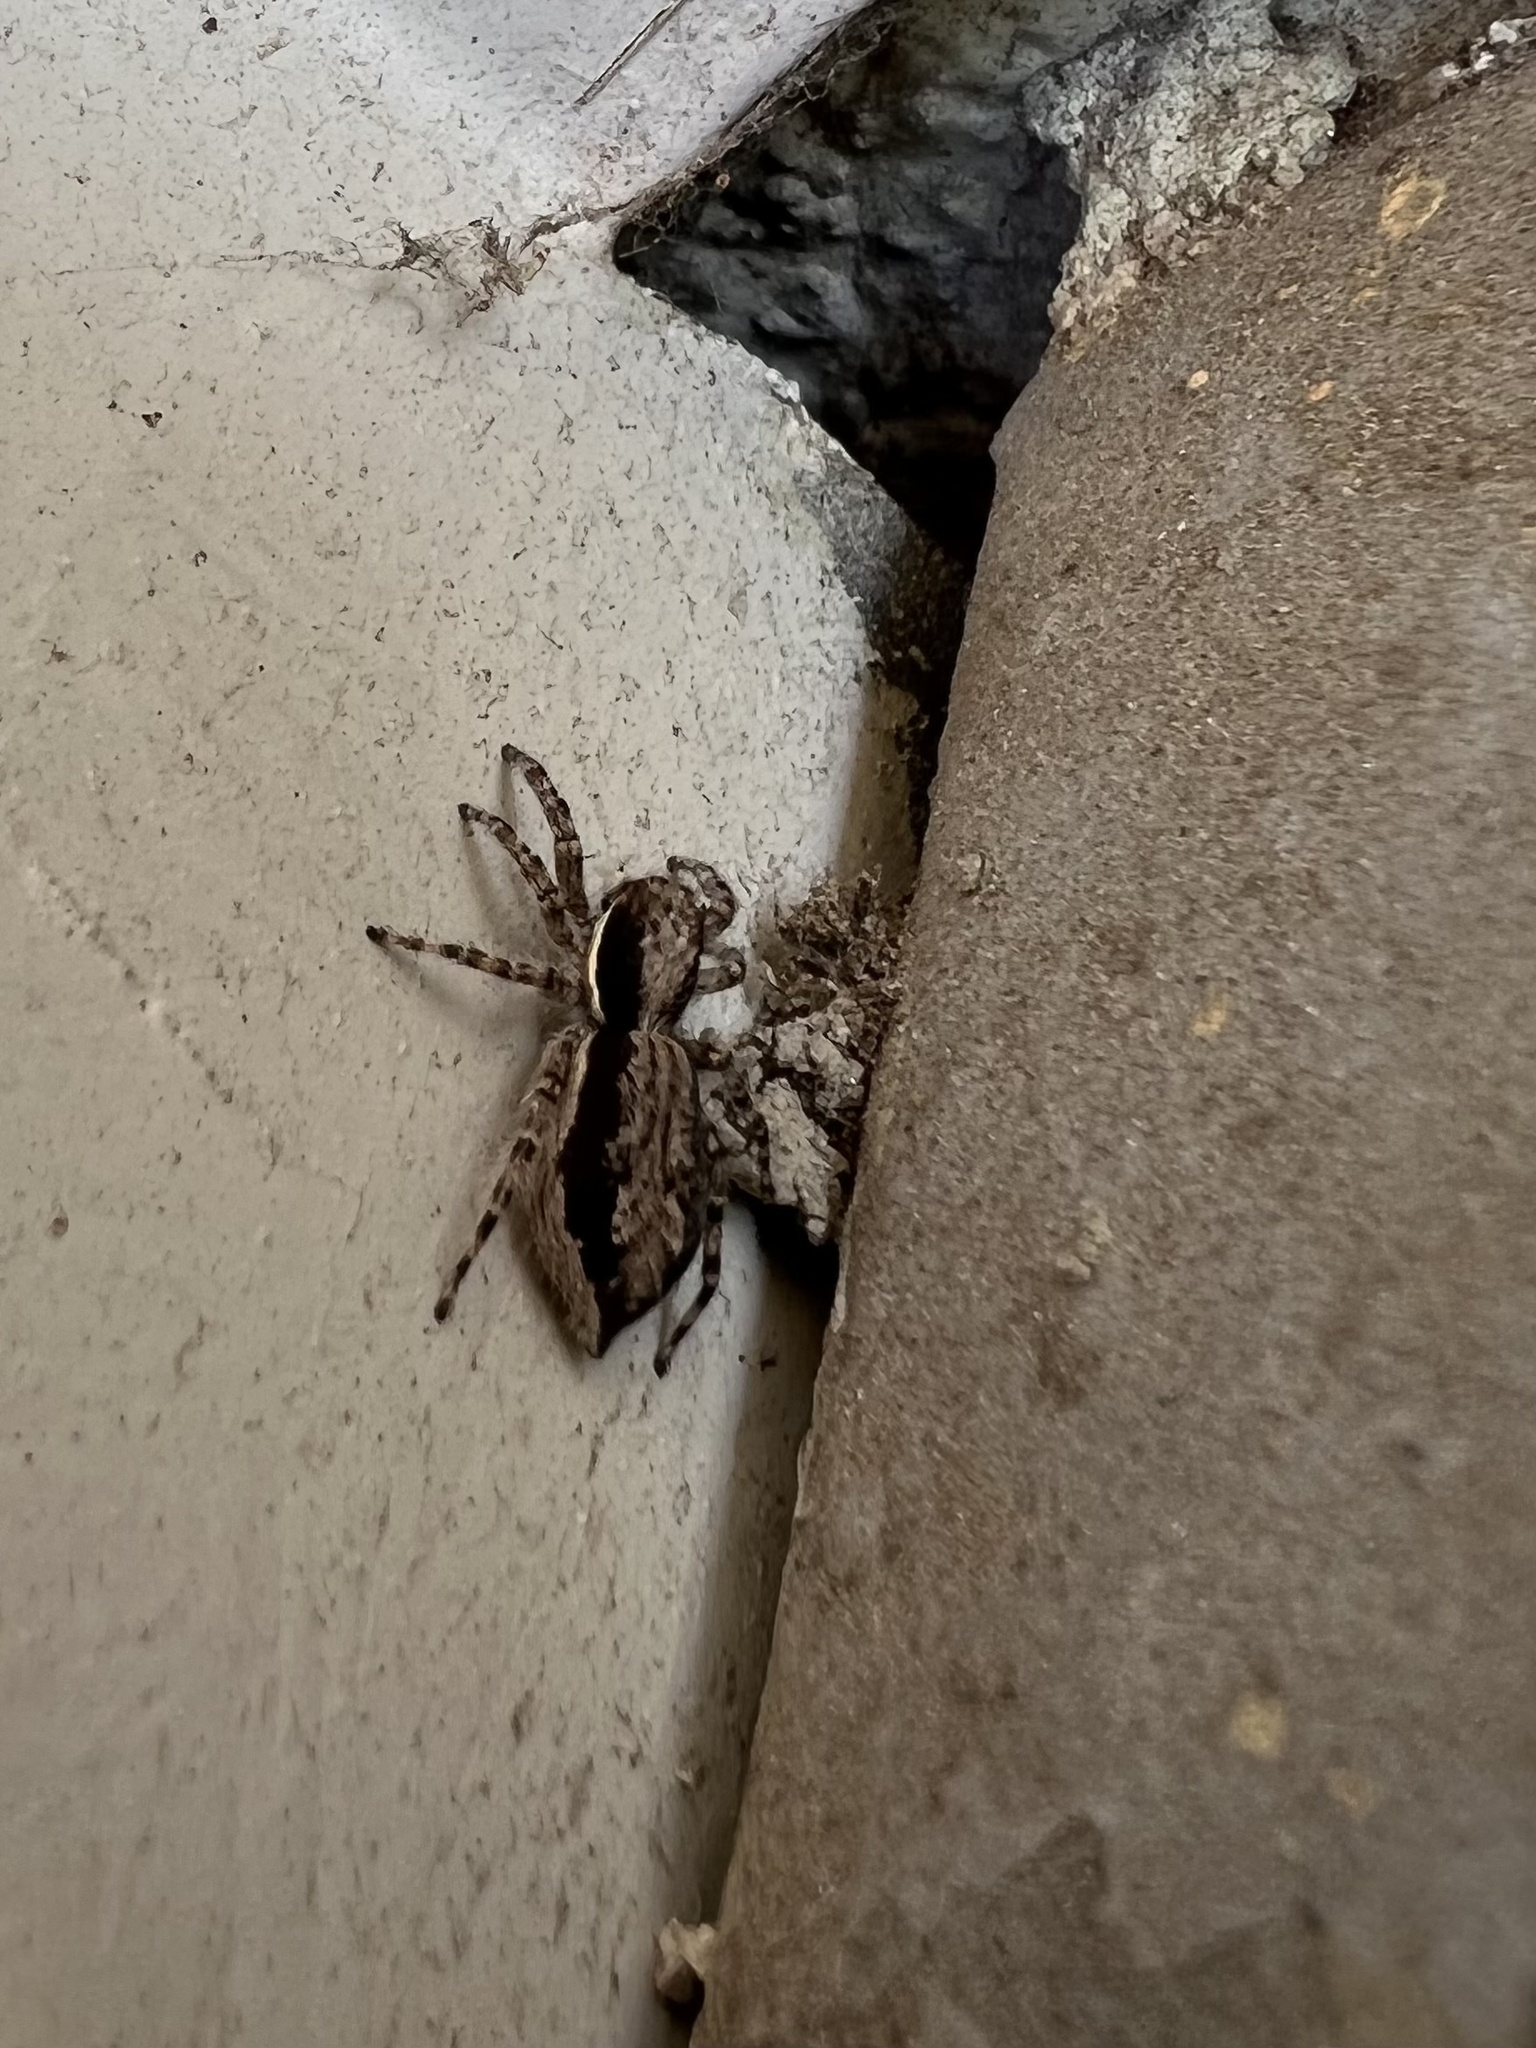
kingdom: Animalia
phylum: Arthropoda
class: Arachnida
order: Araneae
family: Salticidae
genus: Menemerus
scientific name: Menemerus bivittatus
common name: Gray wall jumper
